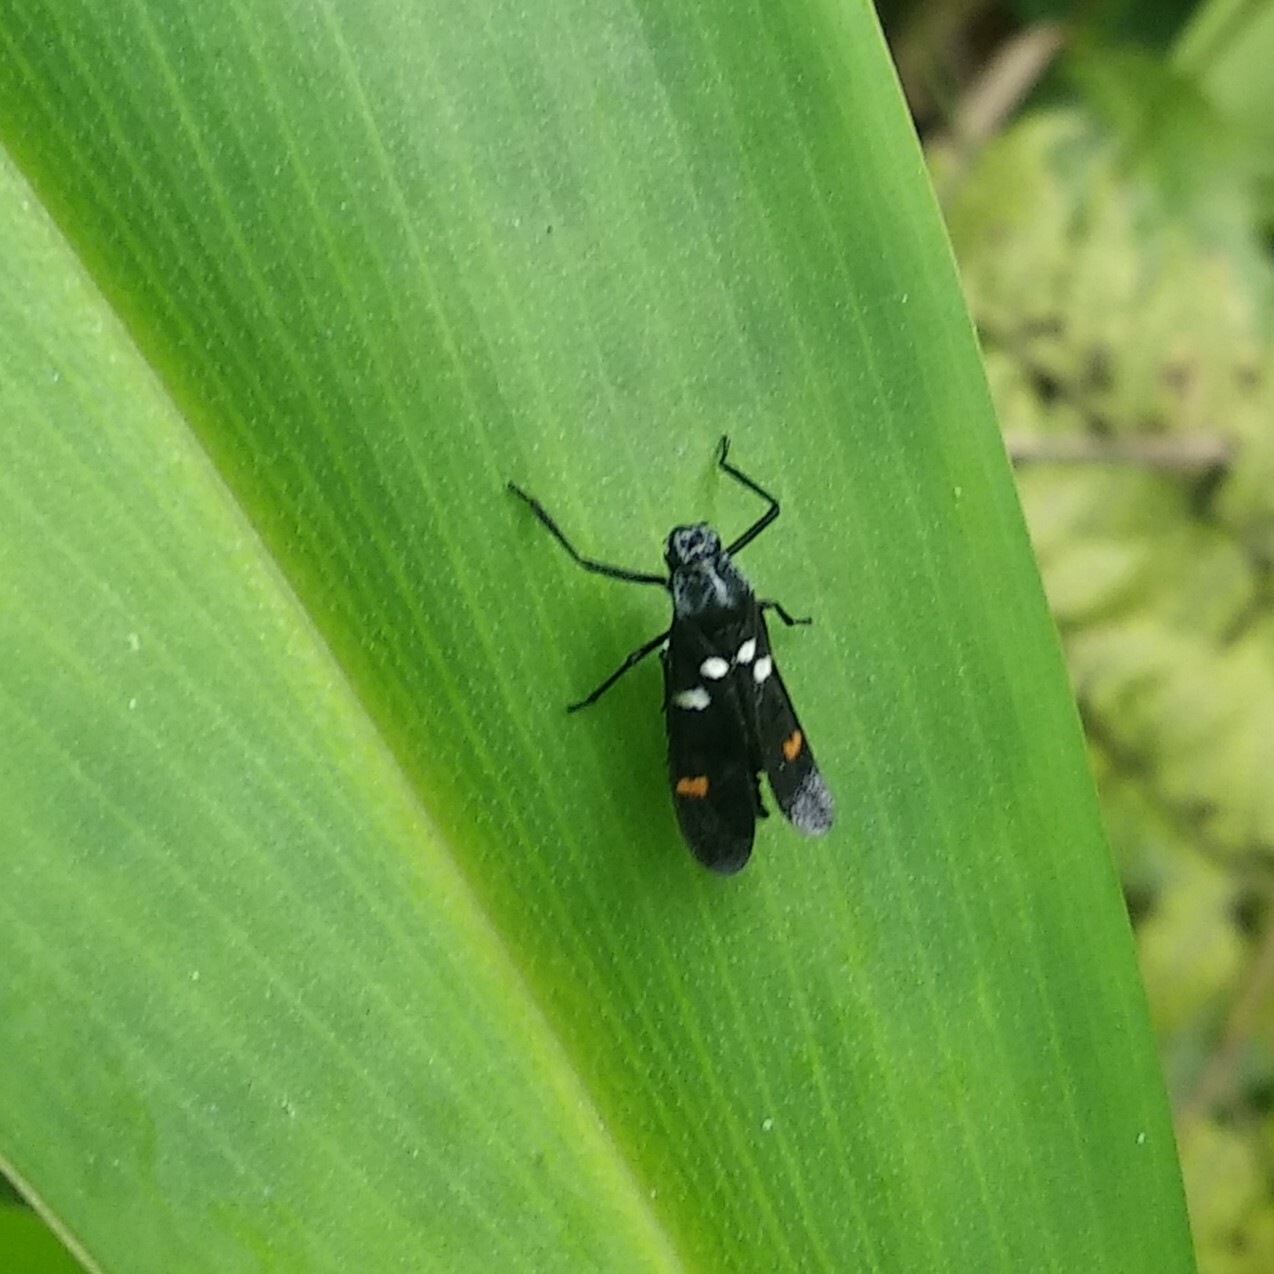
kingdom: Animalia
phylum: Arthropoda
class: Insecta
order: Hemiptera
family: Cercopidae
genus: Callitettix
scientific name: Callitettix versicolor
